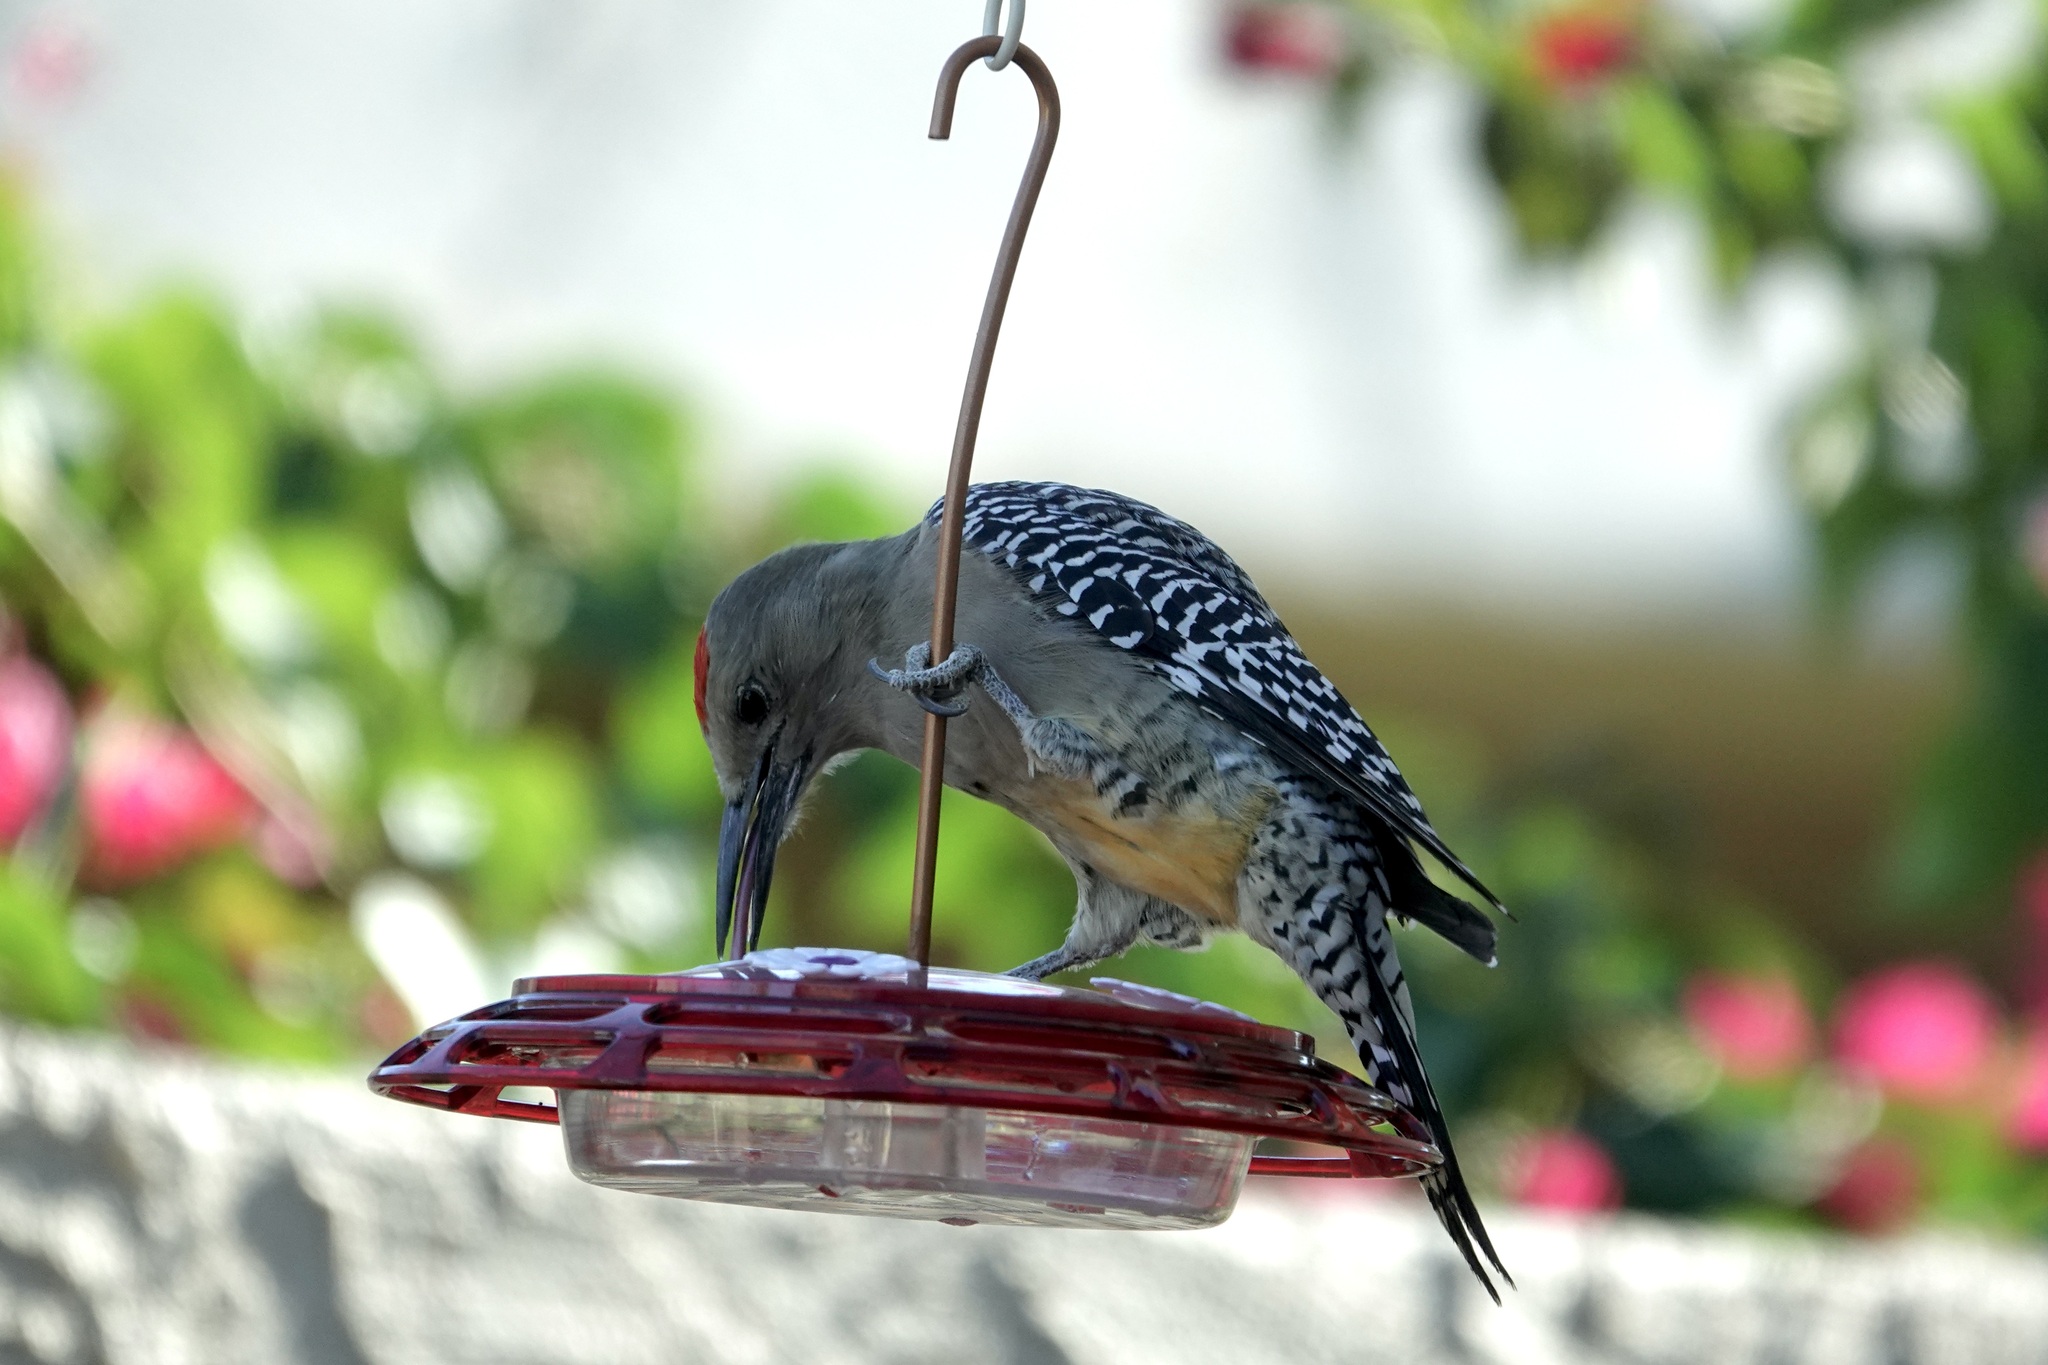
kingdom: Animalia
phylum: Chordata
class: Aves
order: Piciformes
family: Picidae
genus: Melanerpes
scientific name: Melanerpes uropygialis
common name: Gila woodpecker
